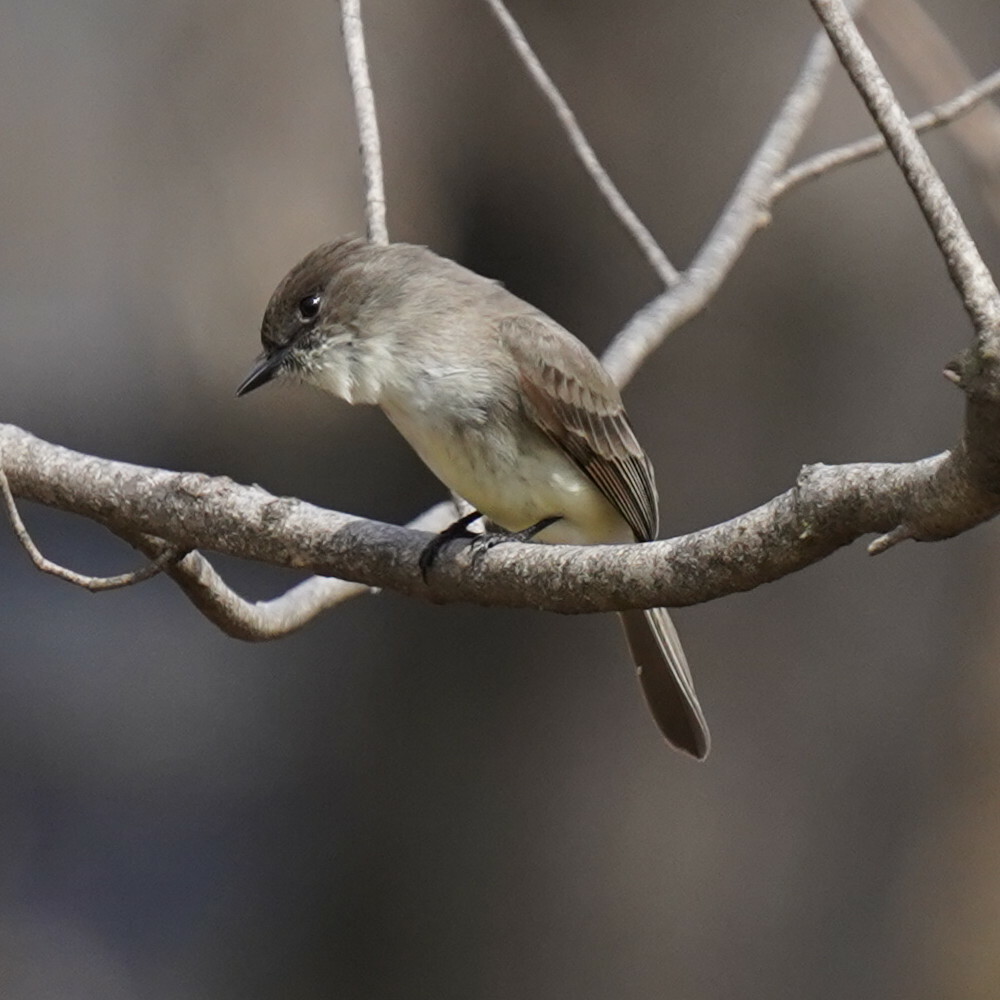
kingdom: Animalia
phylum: Chordata
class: Aves
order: Passeriformes
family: Tyrannidae
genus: Sayornis
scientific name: Sayornis phoebe
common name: Eastern phoebe
